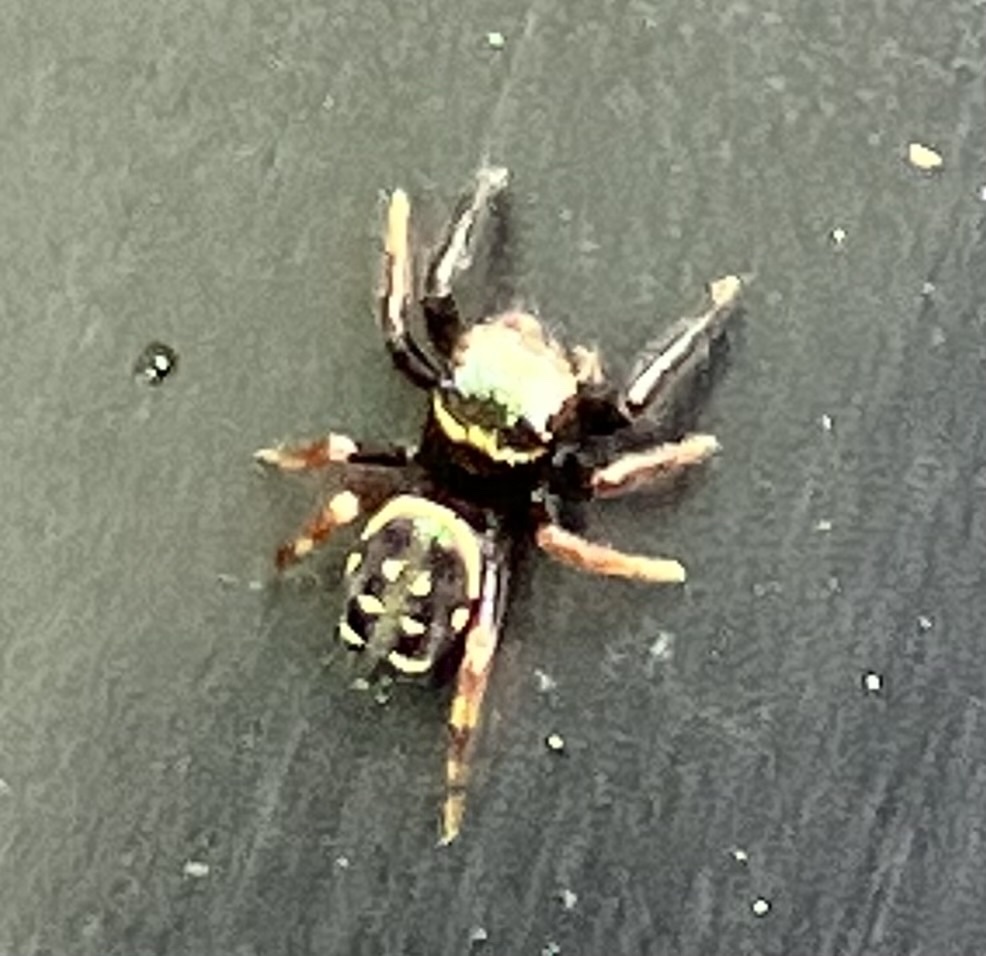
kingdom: Animalia
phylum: Arthropoda
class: Arachnida
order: Araneae
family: Salticidae
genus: Paraphidippus
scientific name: Paraphidippus aurantius
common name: Jumping spiders
